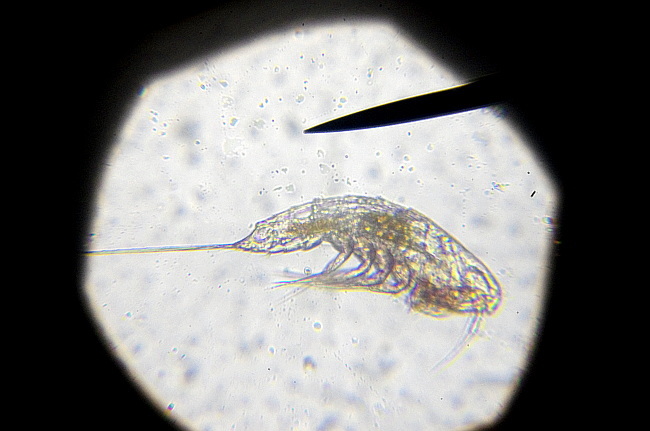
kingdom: Animalia
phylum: Arthropoda
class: Copepoda
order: Harpacticoida
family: Ectinosomatidae
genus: Microsetella
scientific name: Microsetella norvegica
